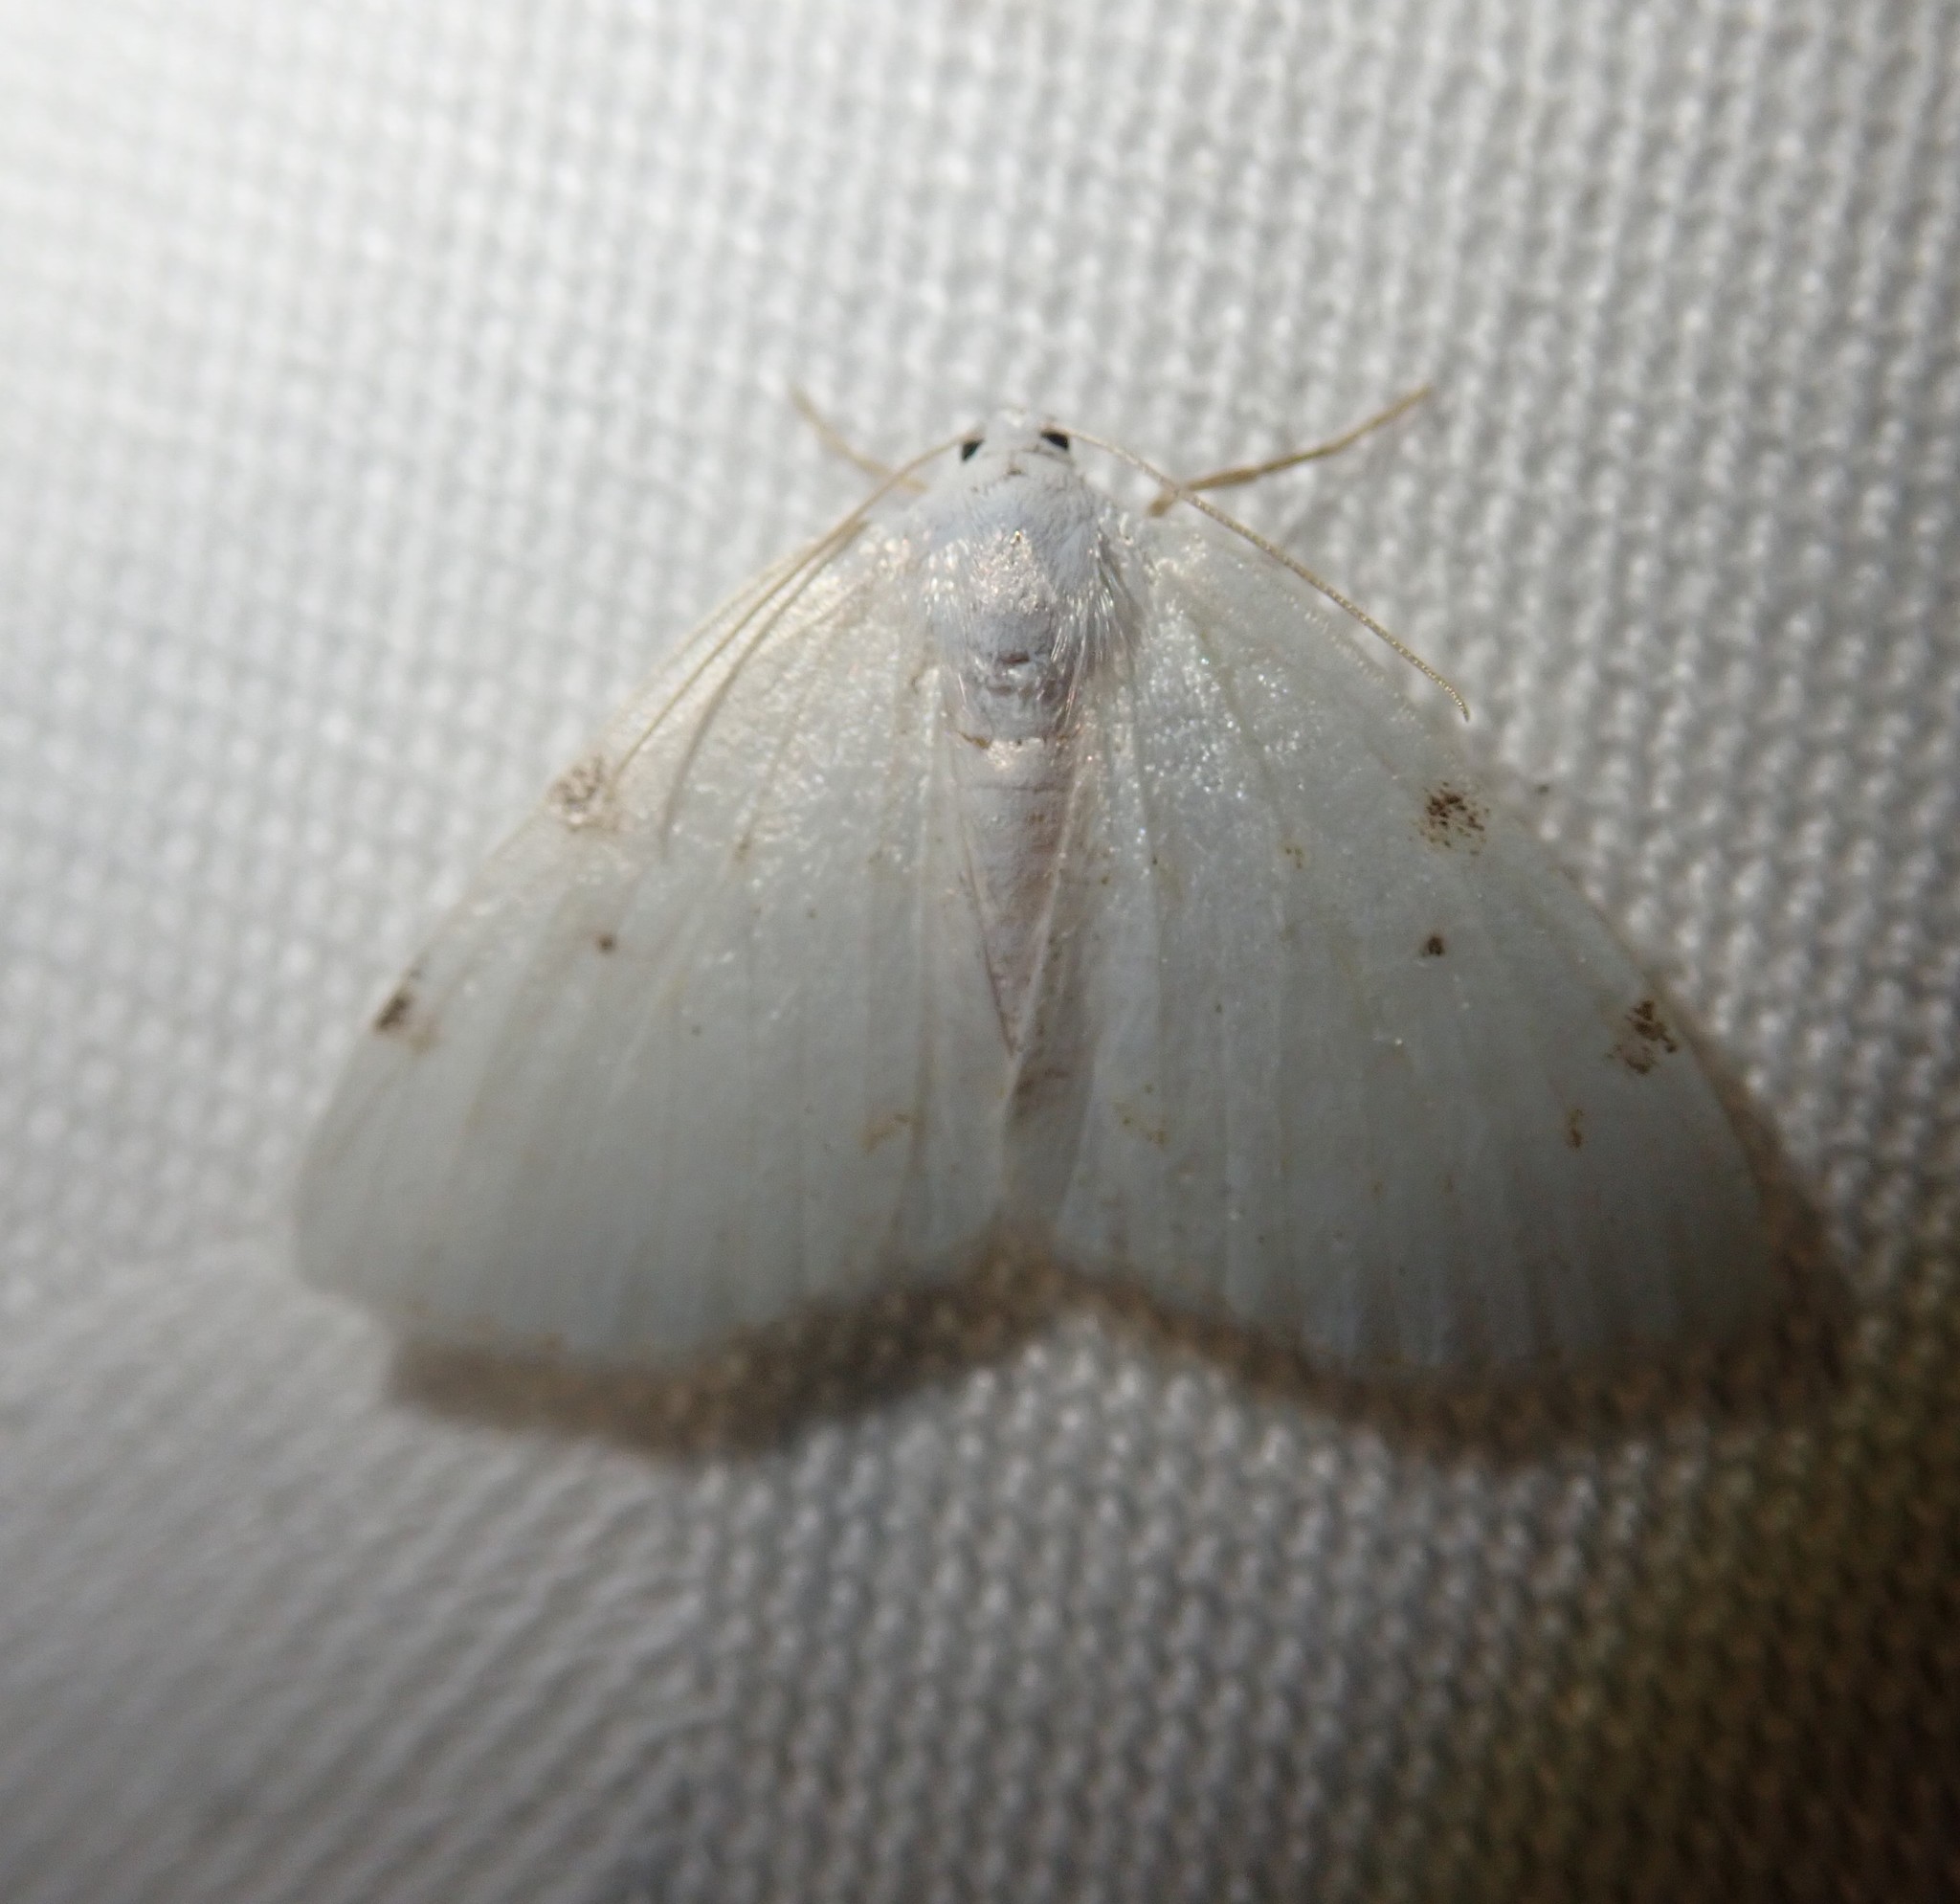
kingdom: Animalia
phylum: Arthropoda
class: Insecta
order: Lepidoptera
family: Geometridae
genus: Lomographa
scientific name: Lomographa bimaculata
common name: White-pinion spotted
